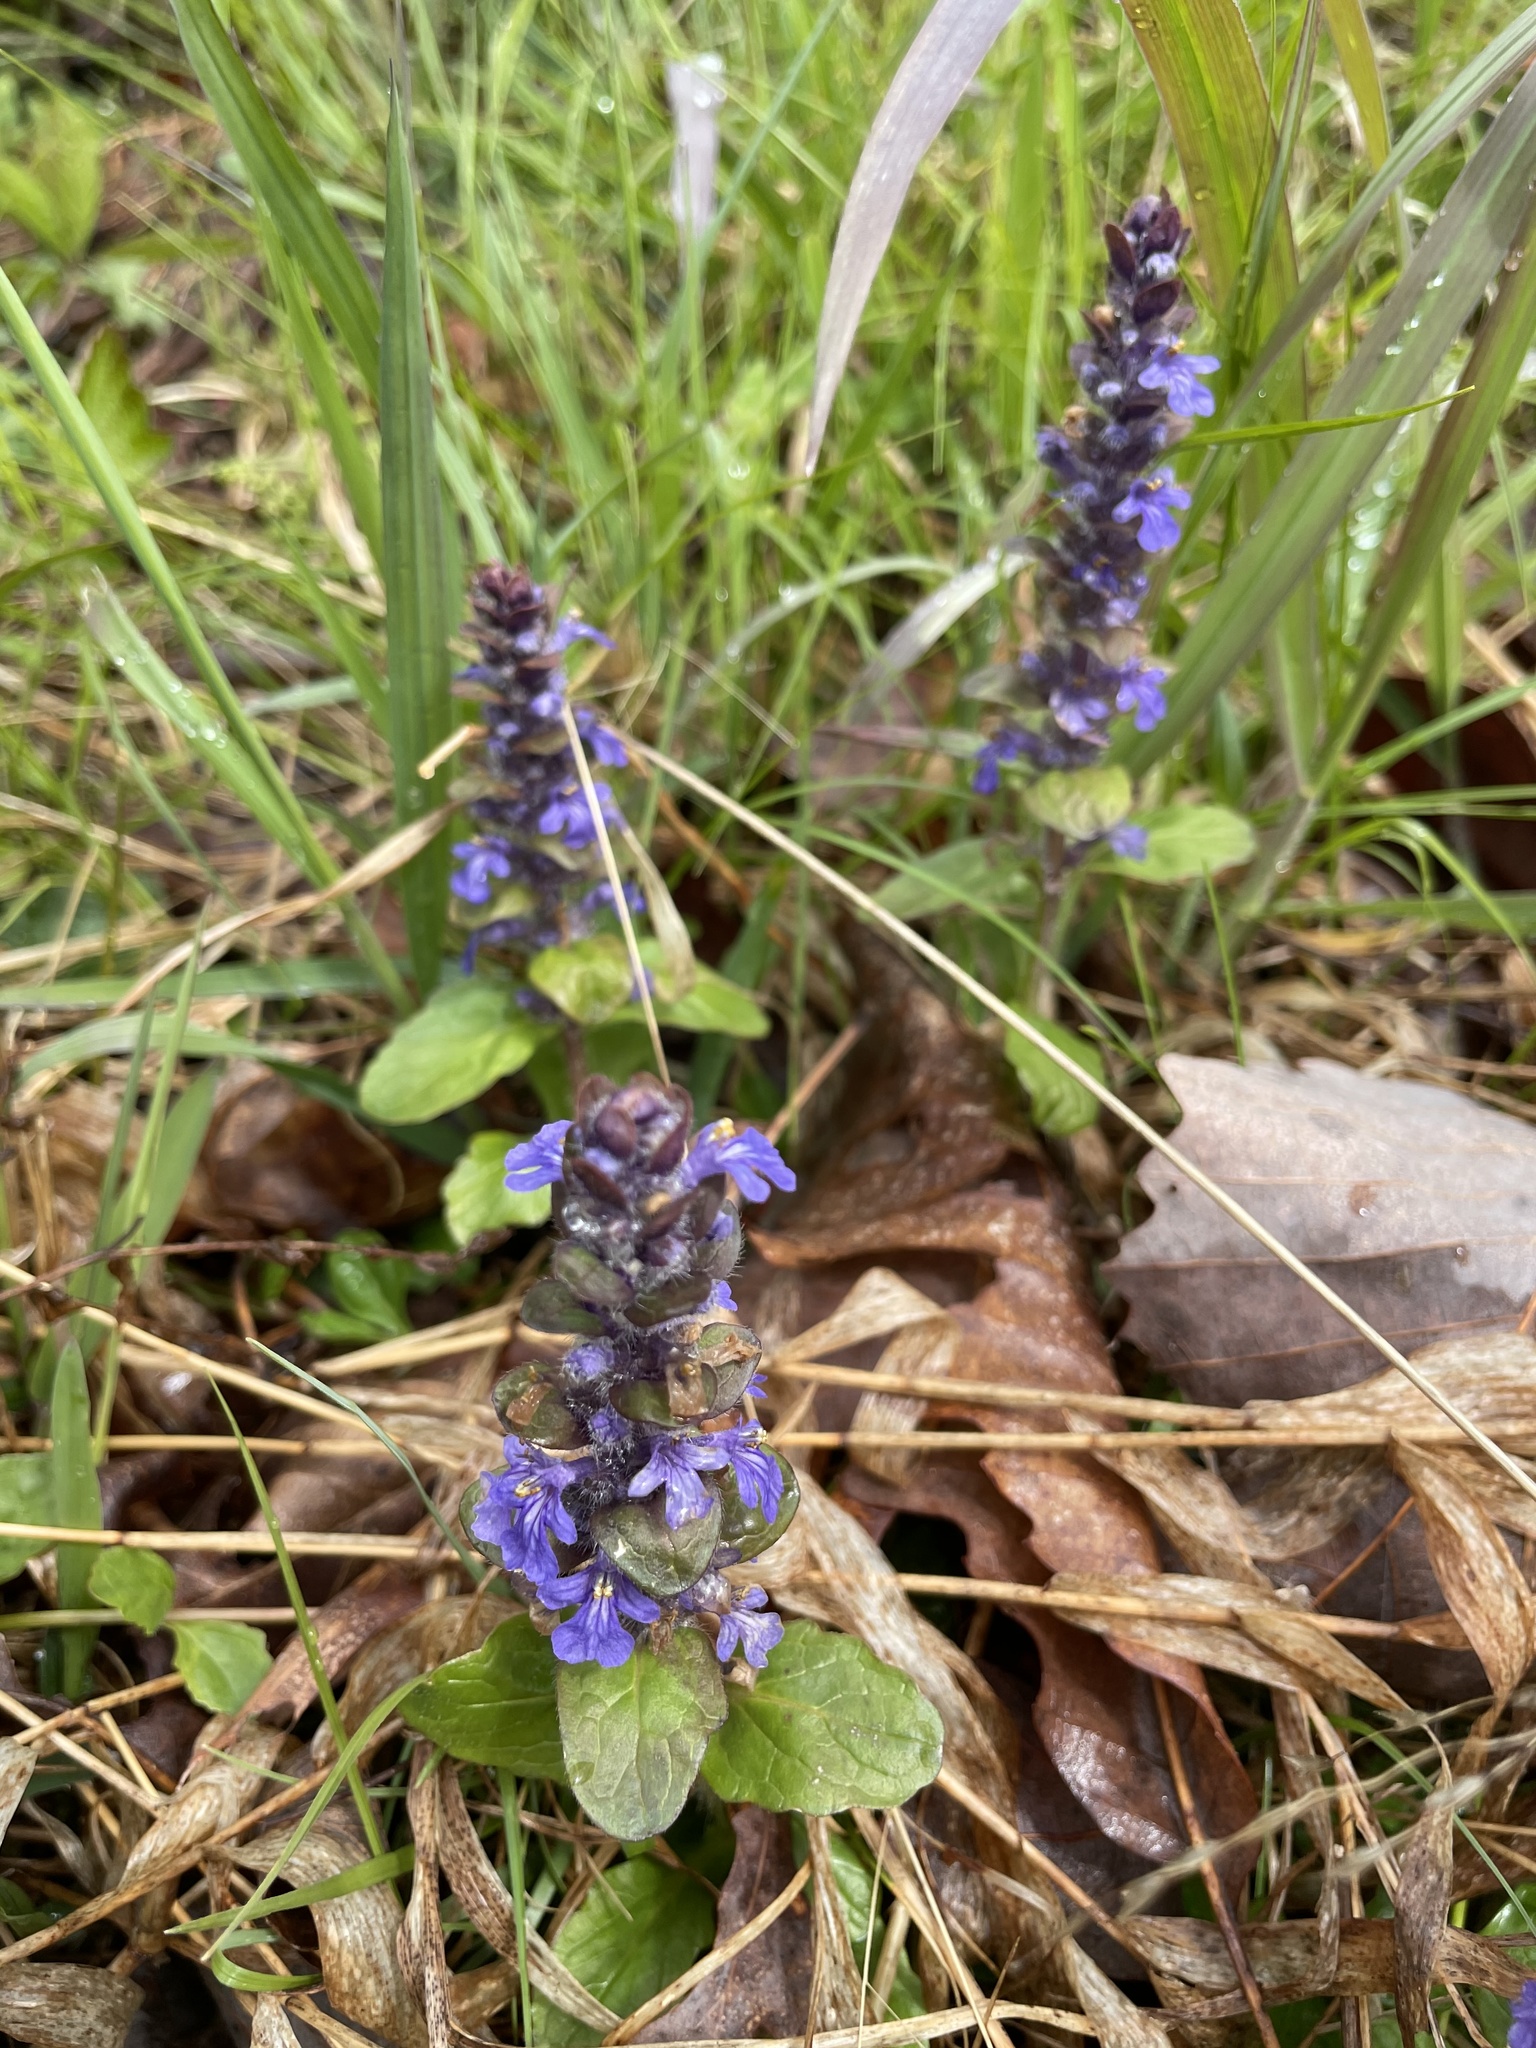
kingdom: Plantae
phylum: Tracheophyta
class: Magnoliopsida
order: Lamiales
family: Lamiaceae
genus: Ajuga
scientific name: Ajuga reptans
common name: Bugle
